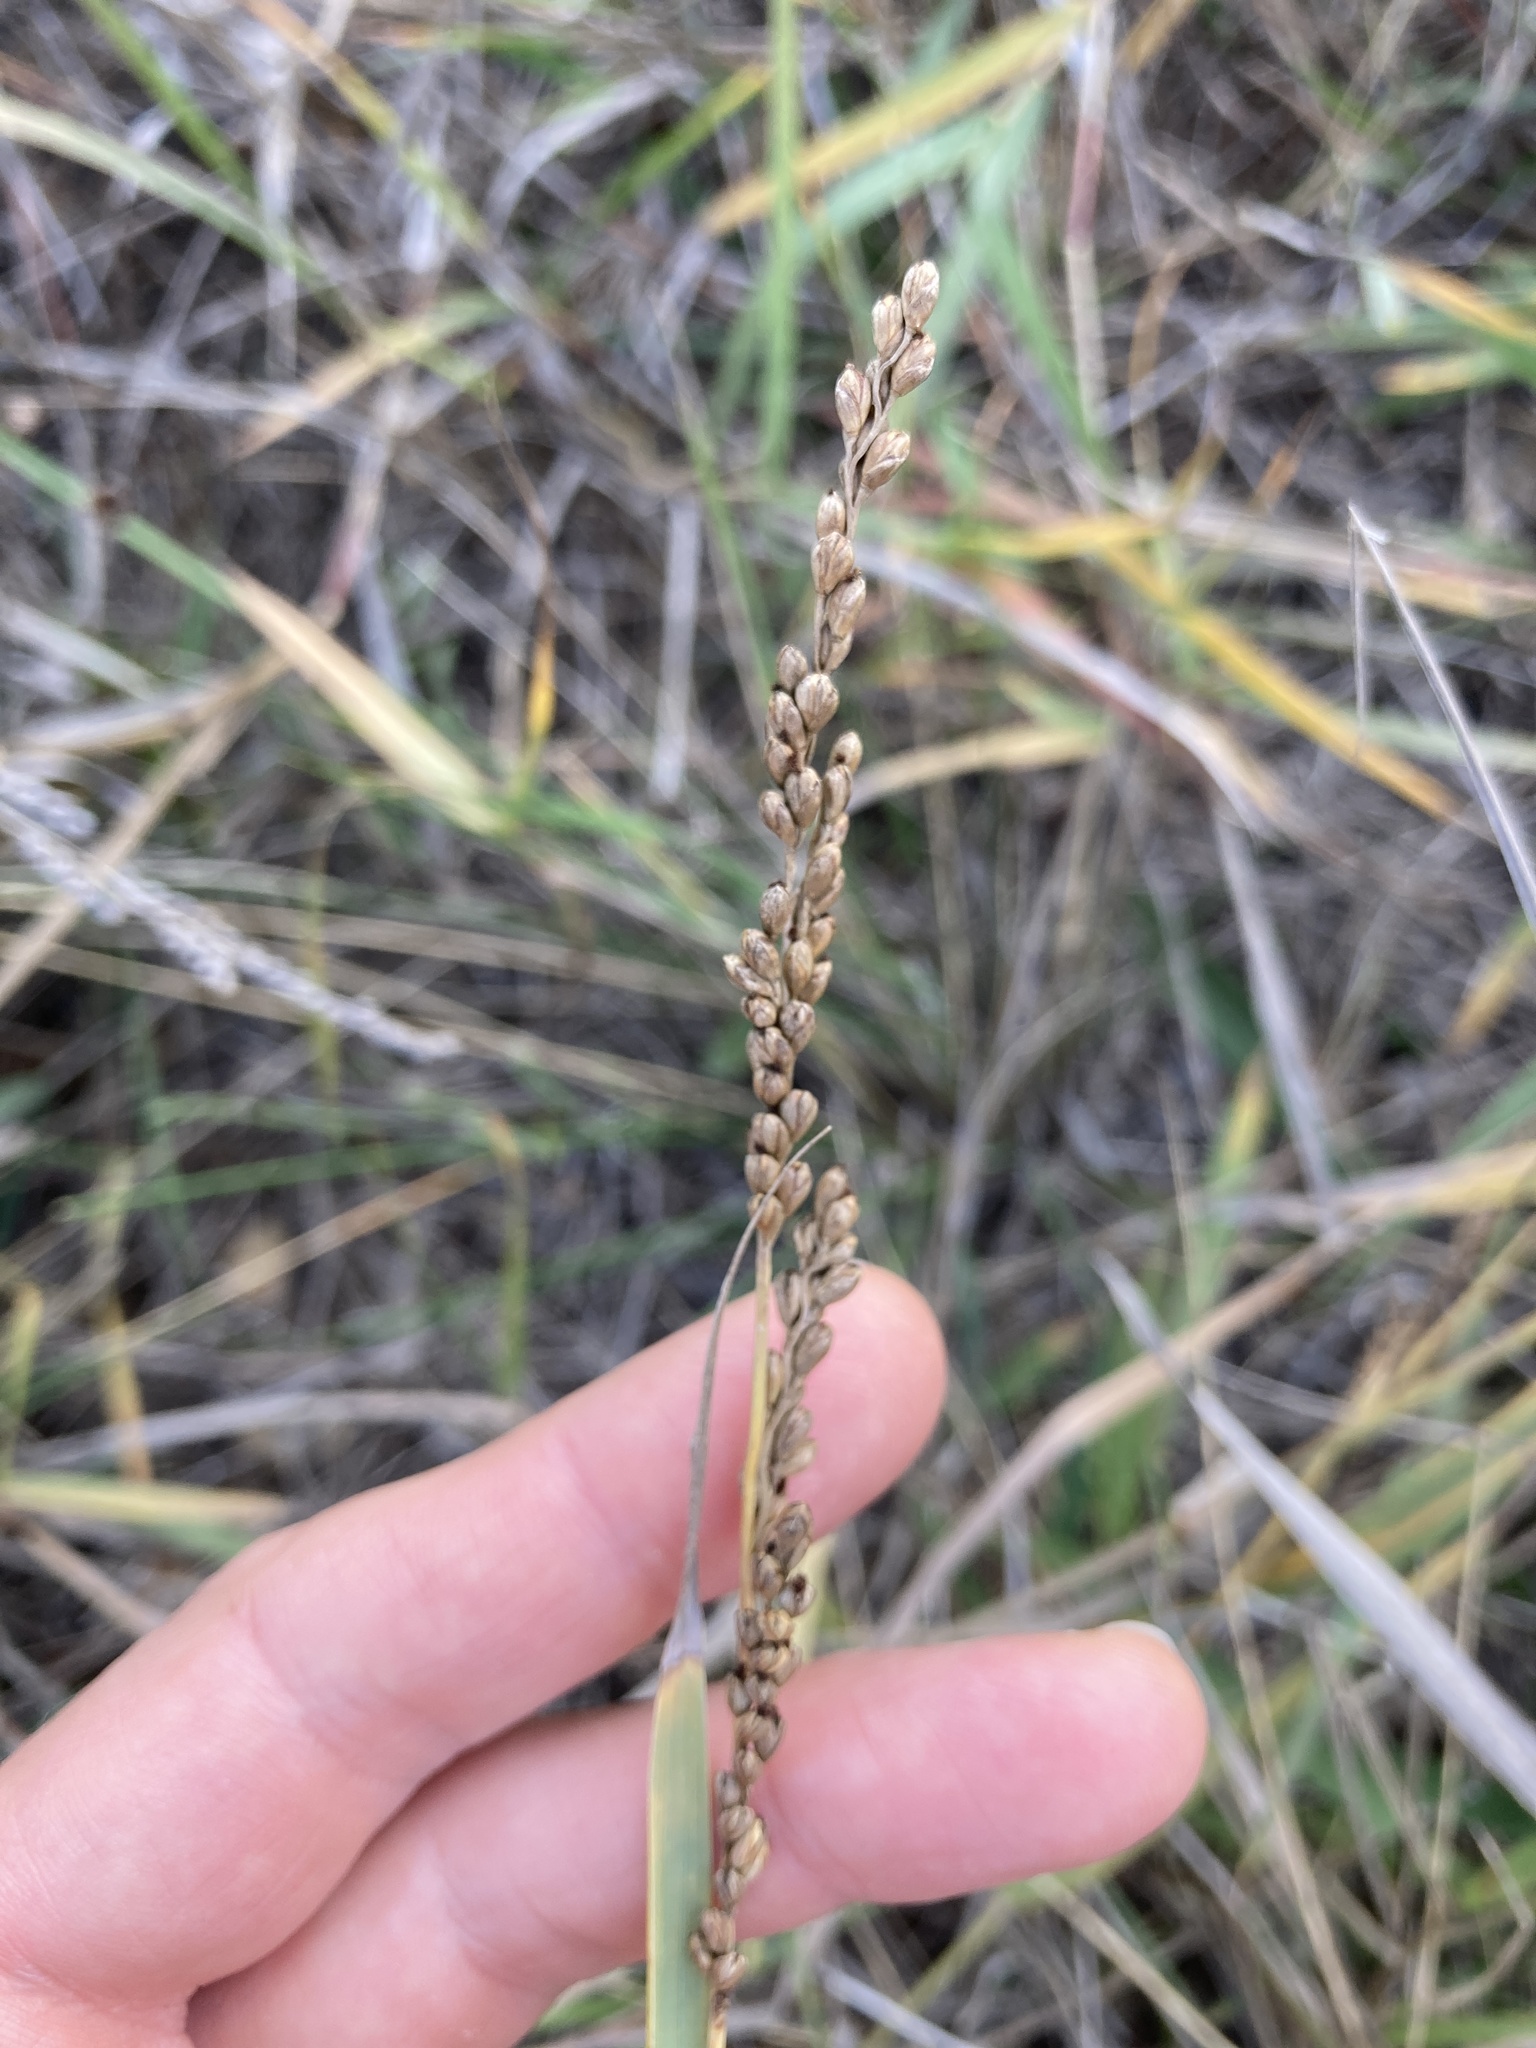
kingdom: Plantae
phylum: Tracheophyta
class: Liliopsida
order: Poales
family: Poaceae
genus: Hopia
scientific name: Hopia obtusa
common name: Vine-mesquite
